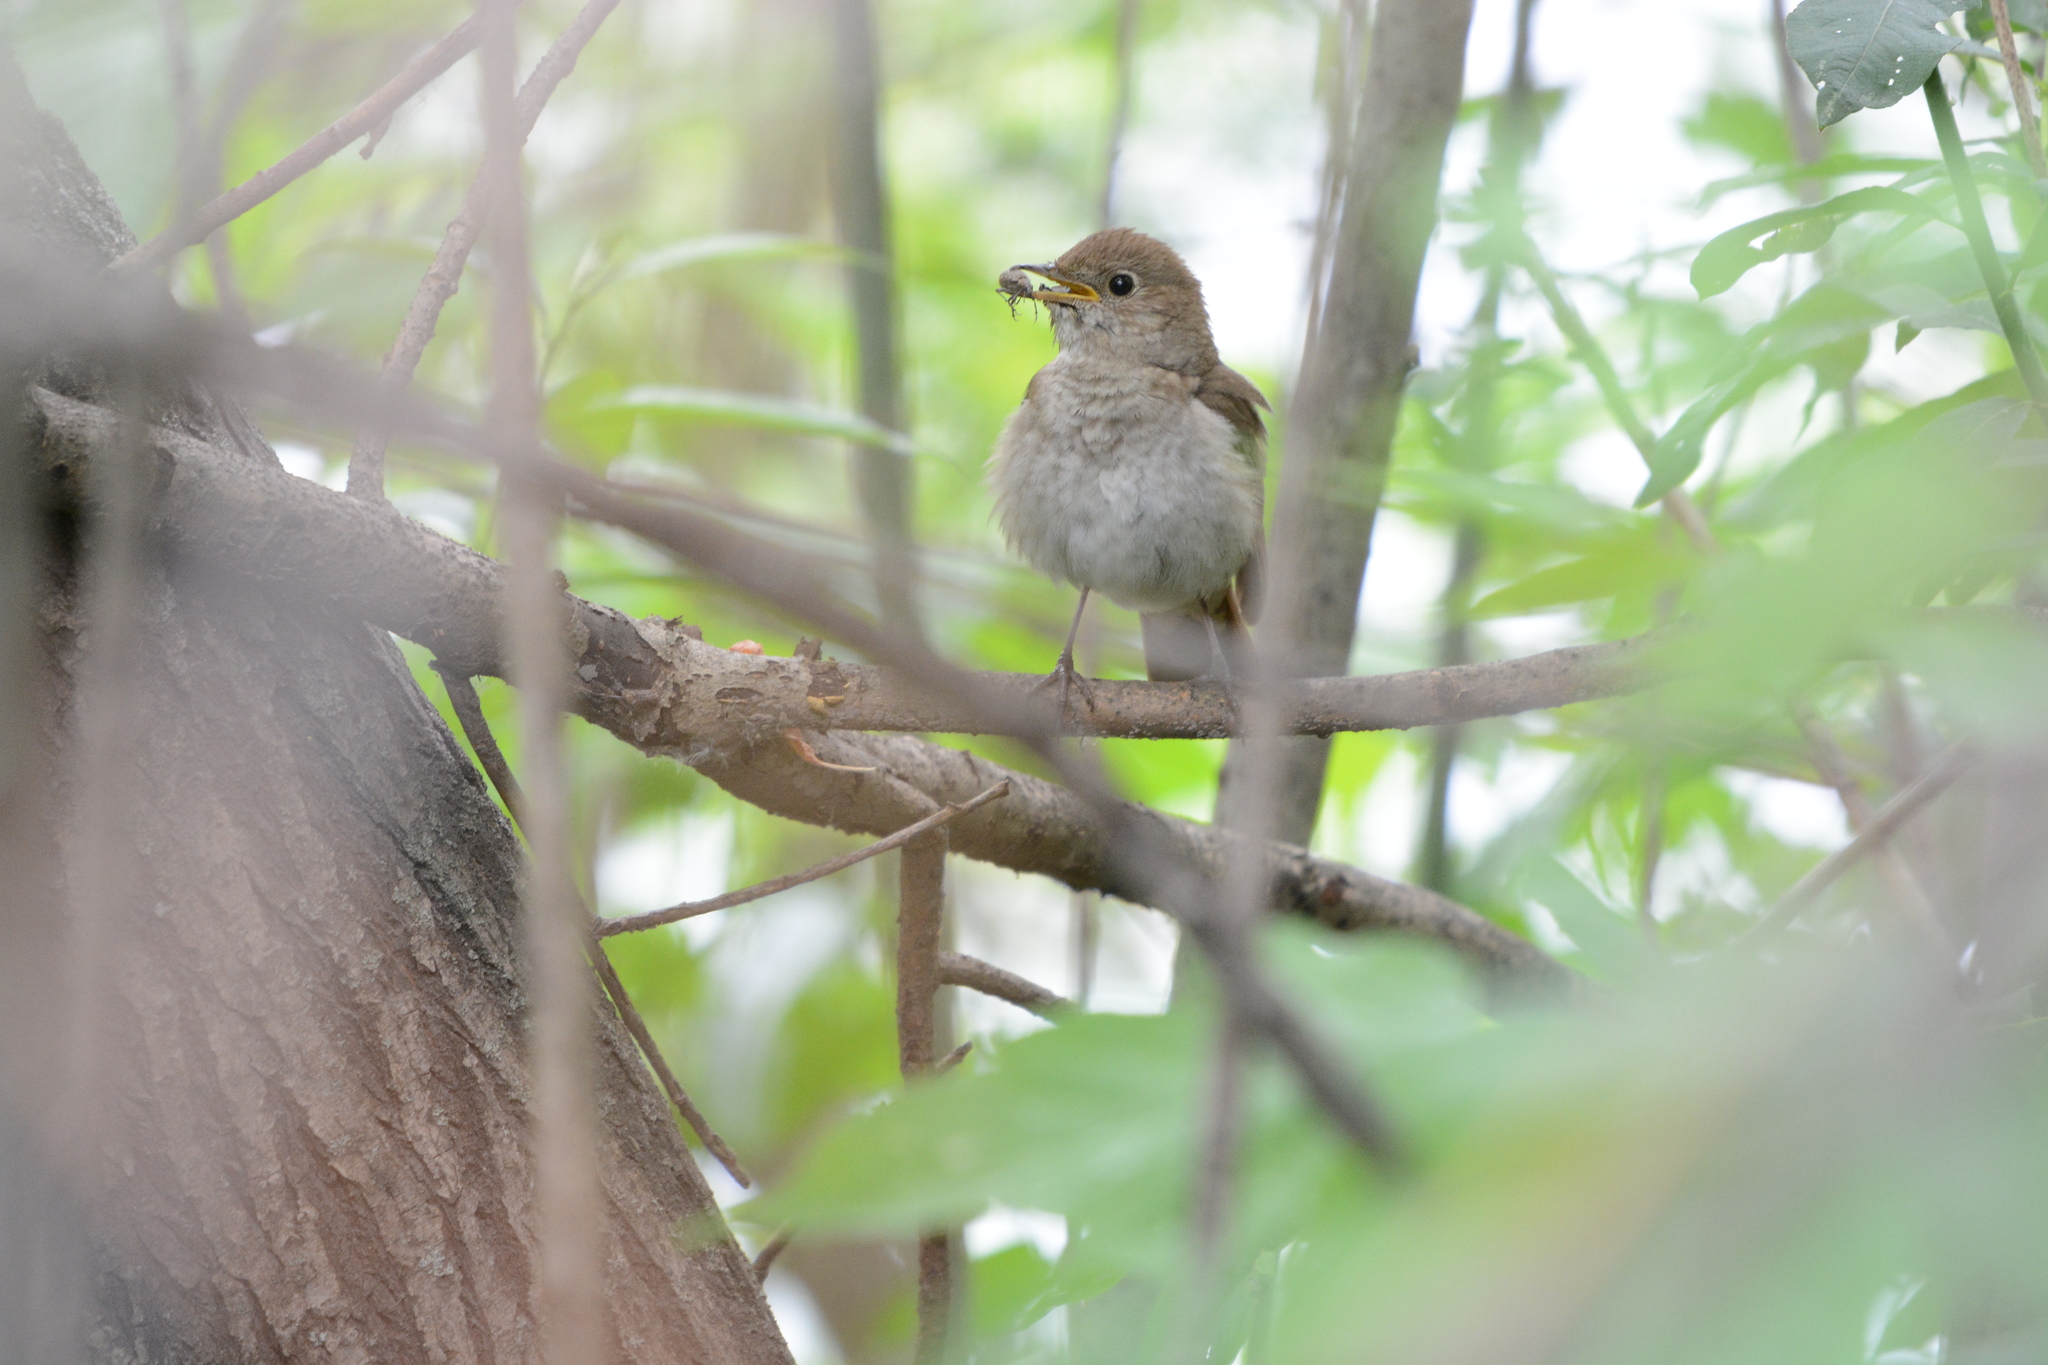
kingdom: Animalia
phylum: Chordata
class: Aves
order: Passeriformes
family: Muscicapidae
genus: Luscinia
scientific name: Luscinia luscinia
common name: Thrush nightingale
